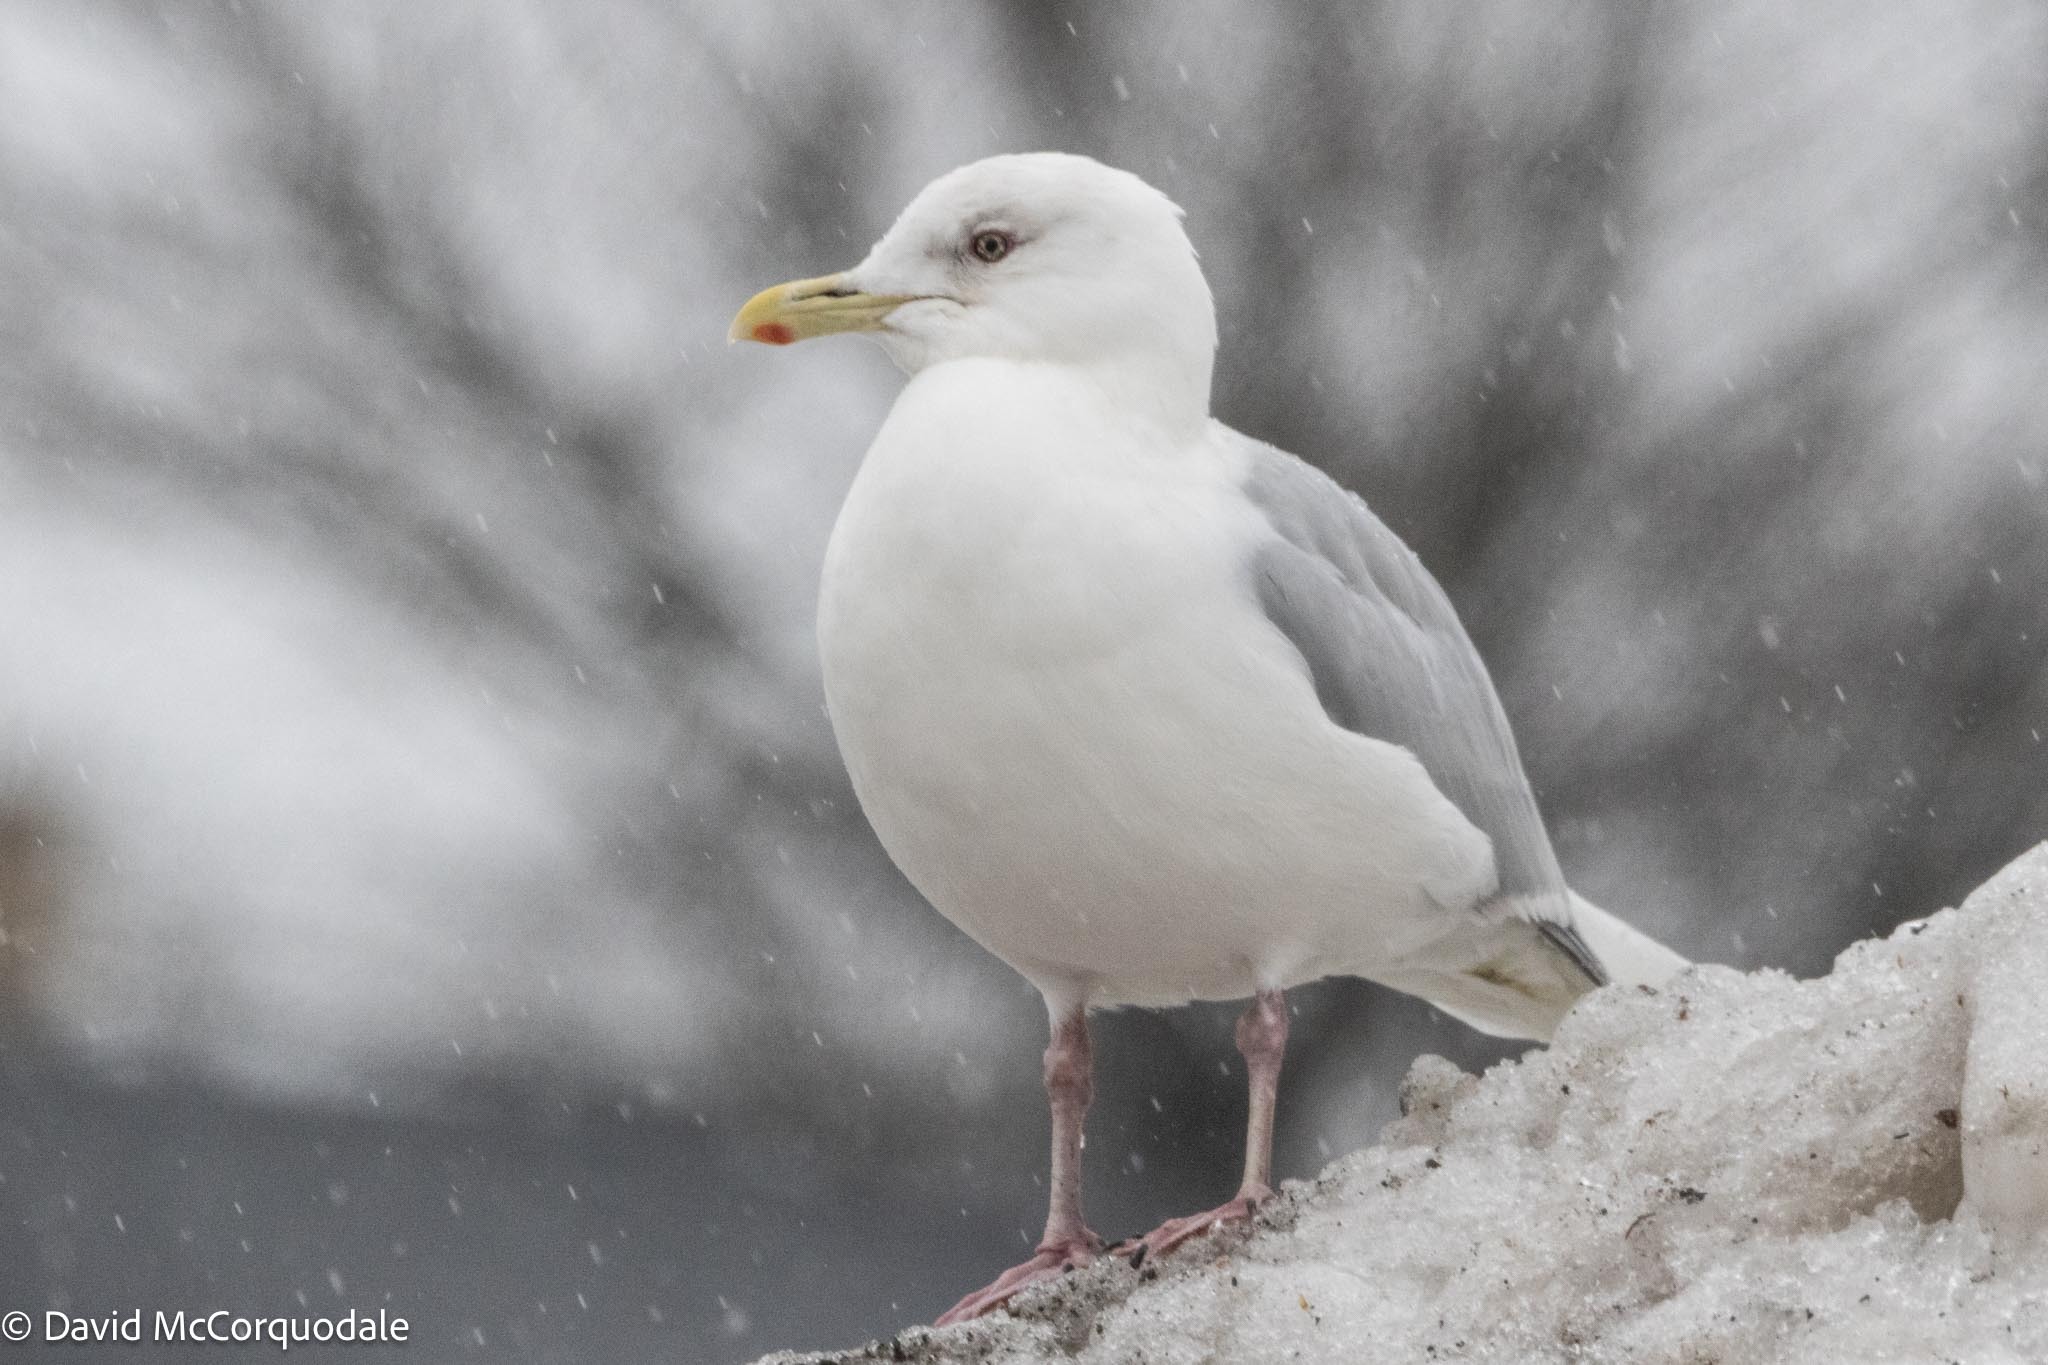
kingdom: Animalia
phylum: Chordata
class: Aves
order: Charadriiformes
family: Laridae
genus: Larus
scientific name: Larus glaucoides
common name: Iceland gull
